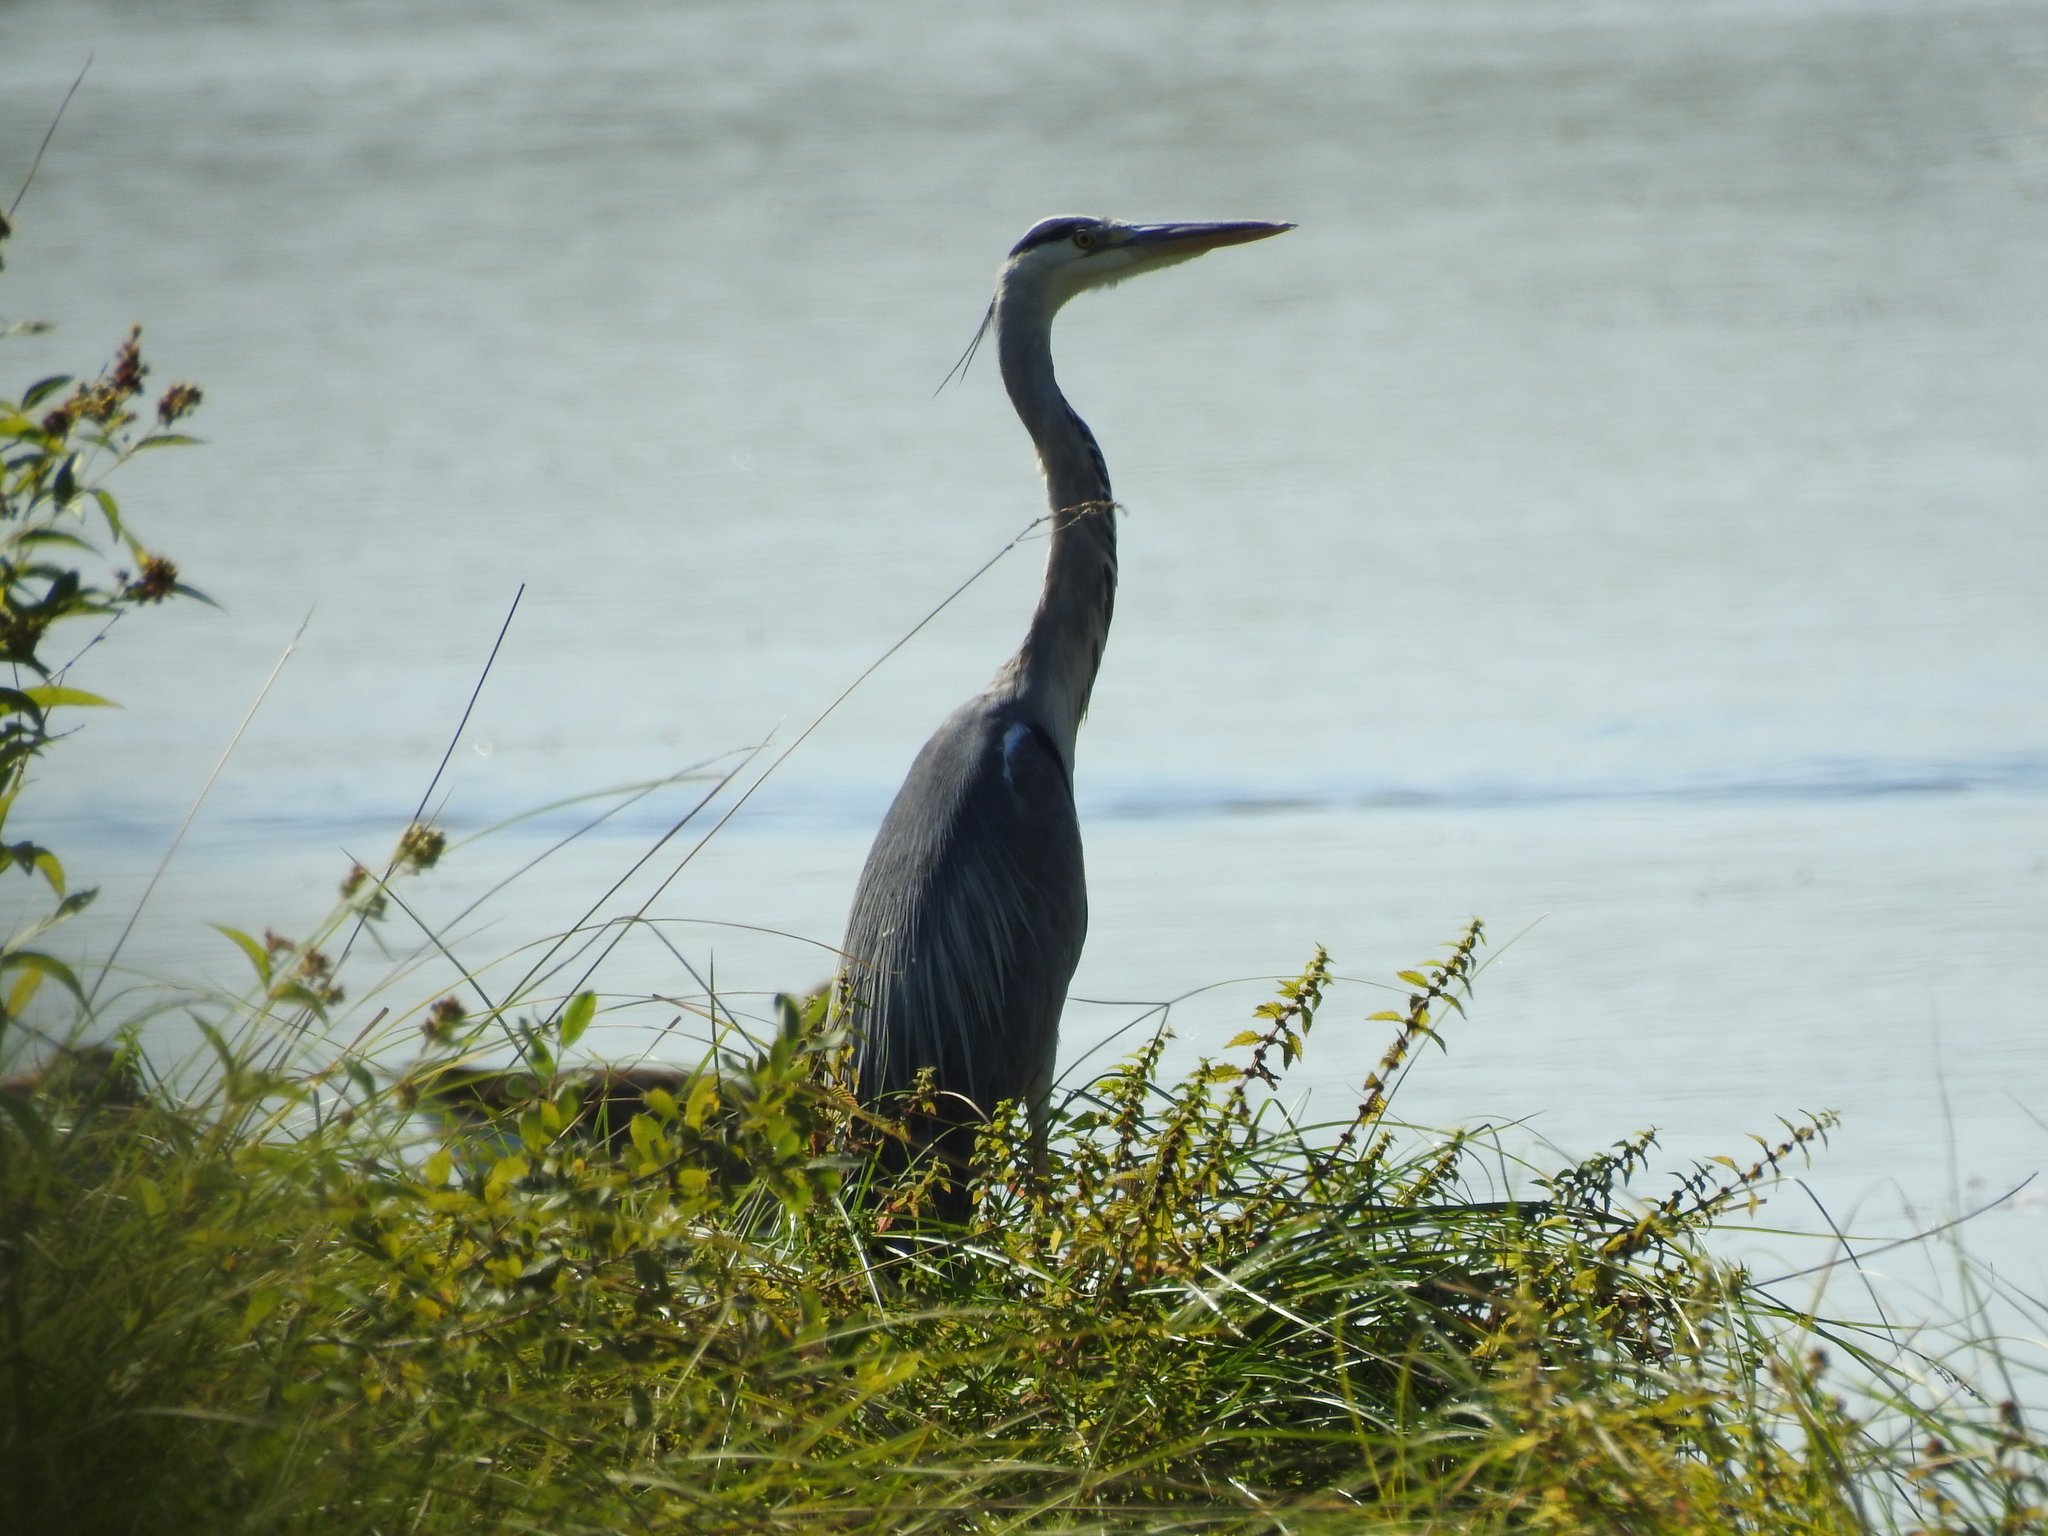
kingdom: Animalia
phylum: Chordata
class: Aves
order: Pelecaniformes
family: Ardeidae
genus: Ardea
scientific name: Ardea cinerea
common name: Grey heron
